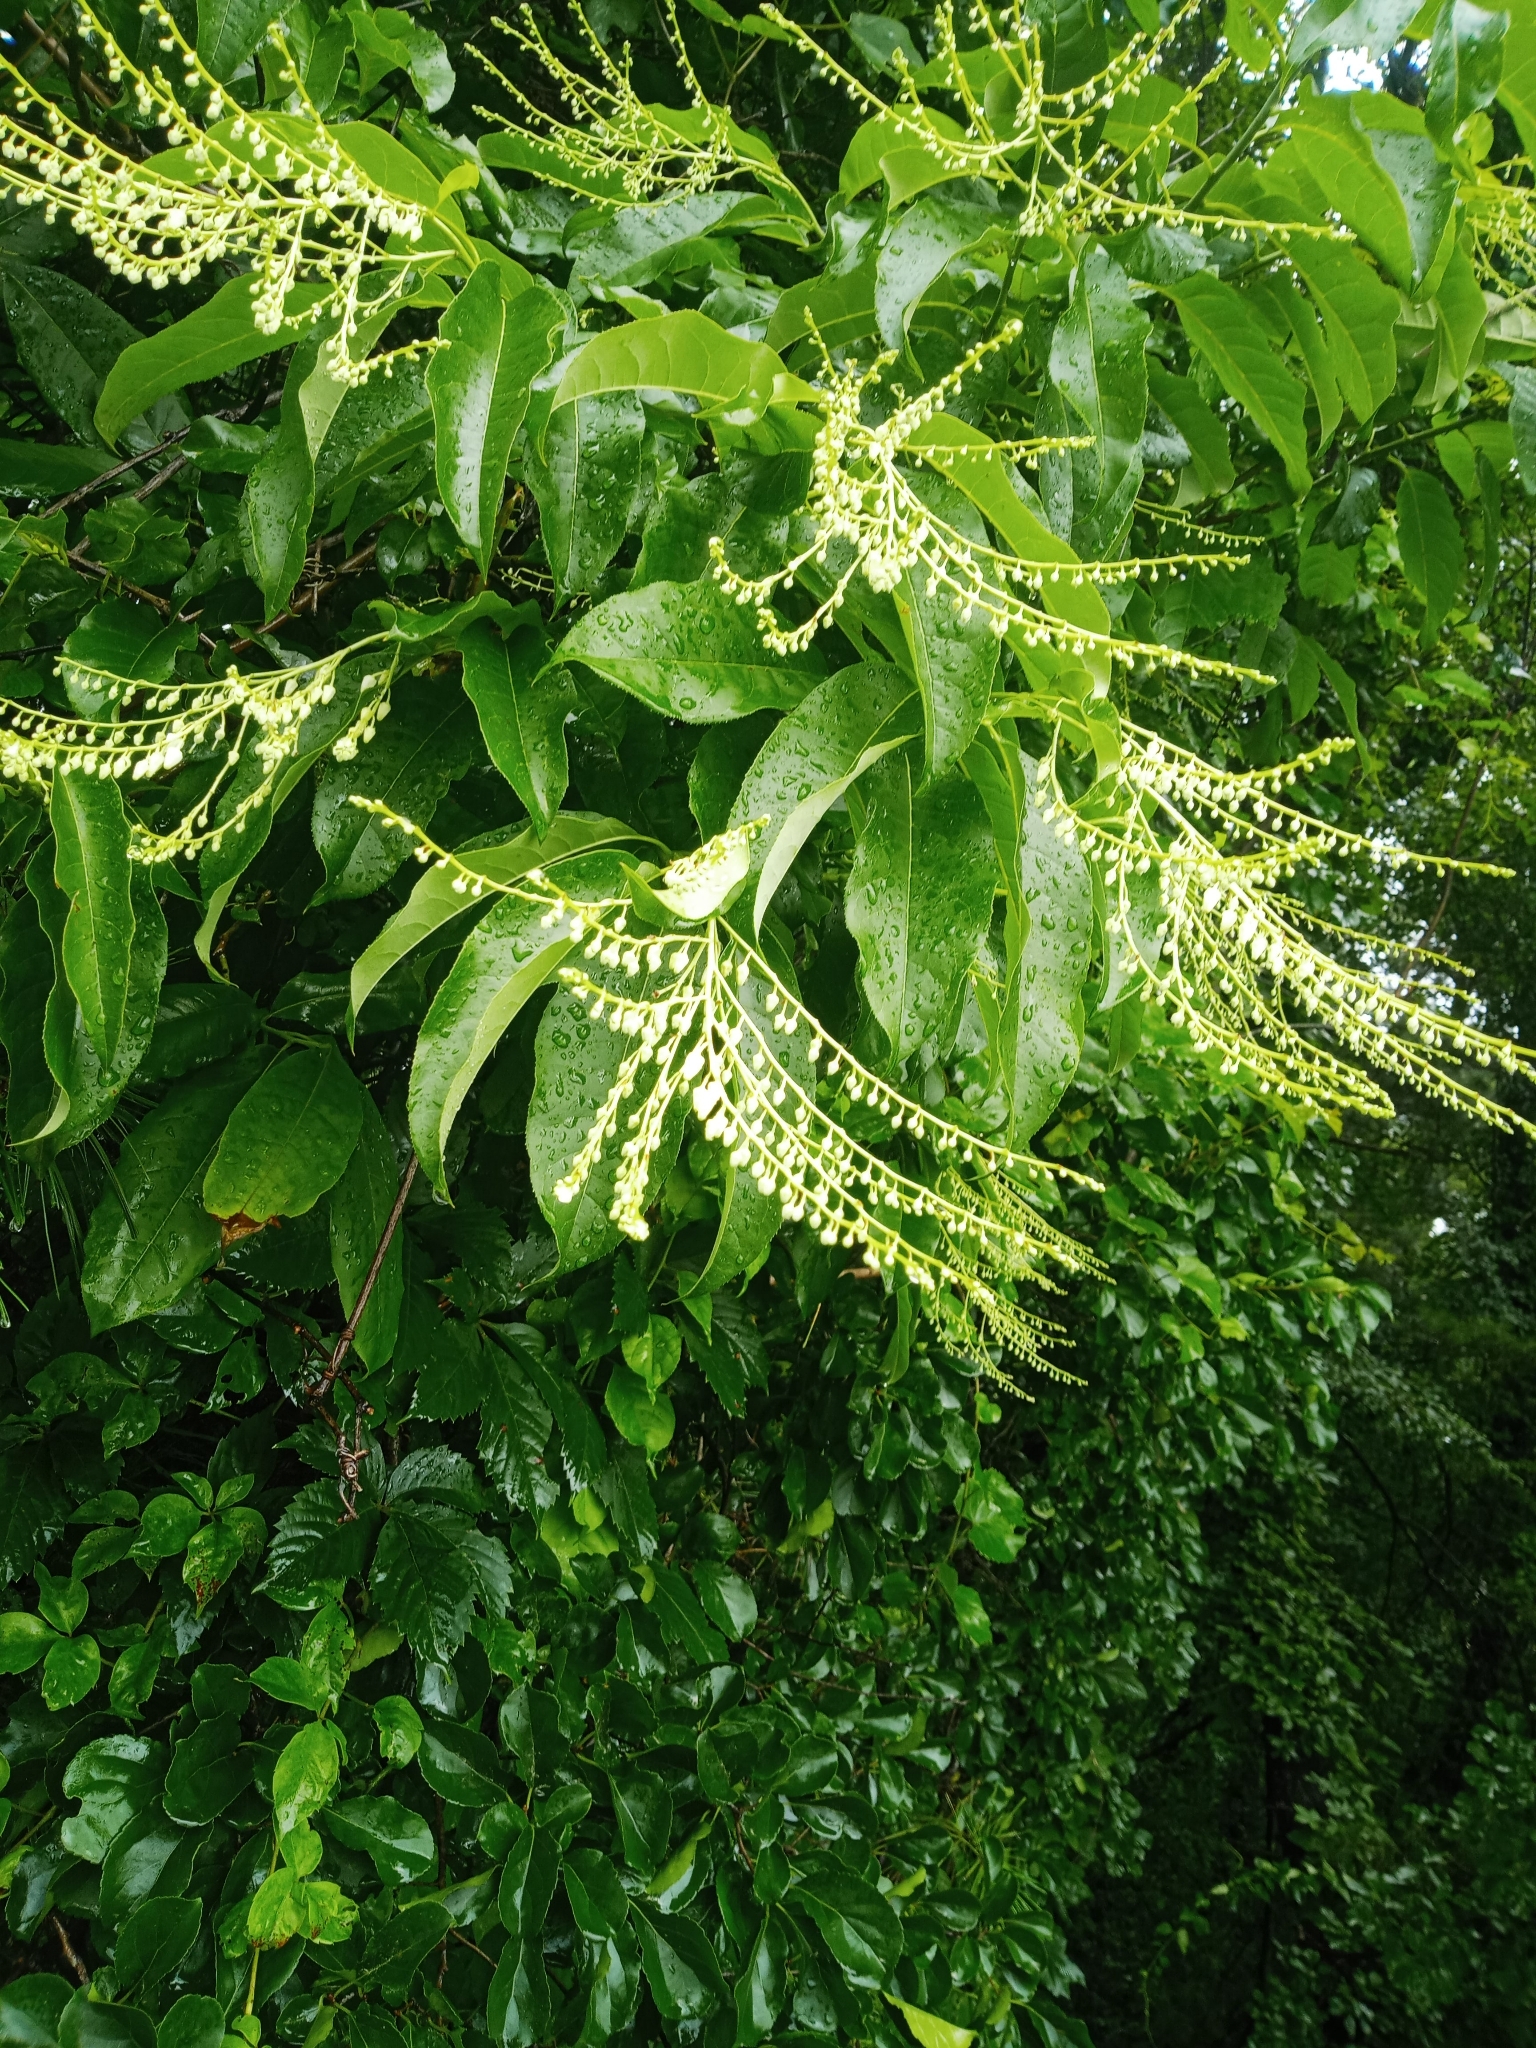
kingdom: Plantae
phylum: Tracheophyta
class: Magnoliopsida
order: Ericales
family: Ericaceae
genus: Oxydendrum
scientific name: Oxydendrum arboreum
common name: Sourwood
